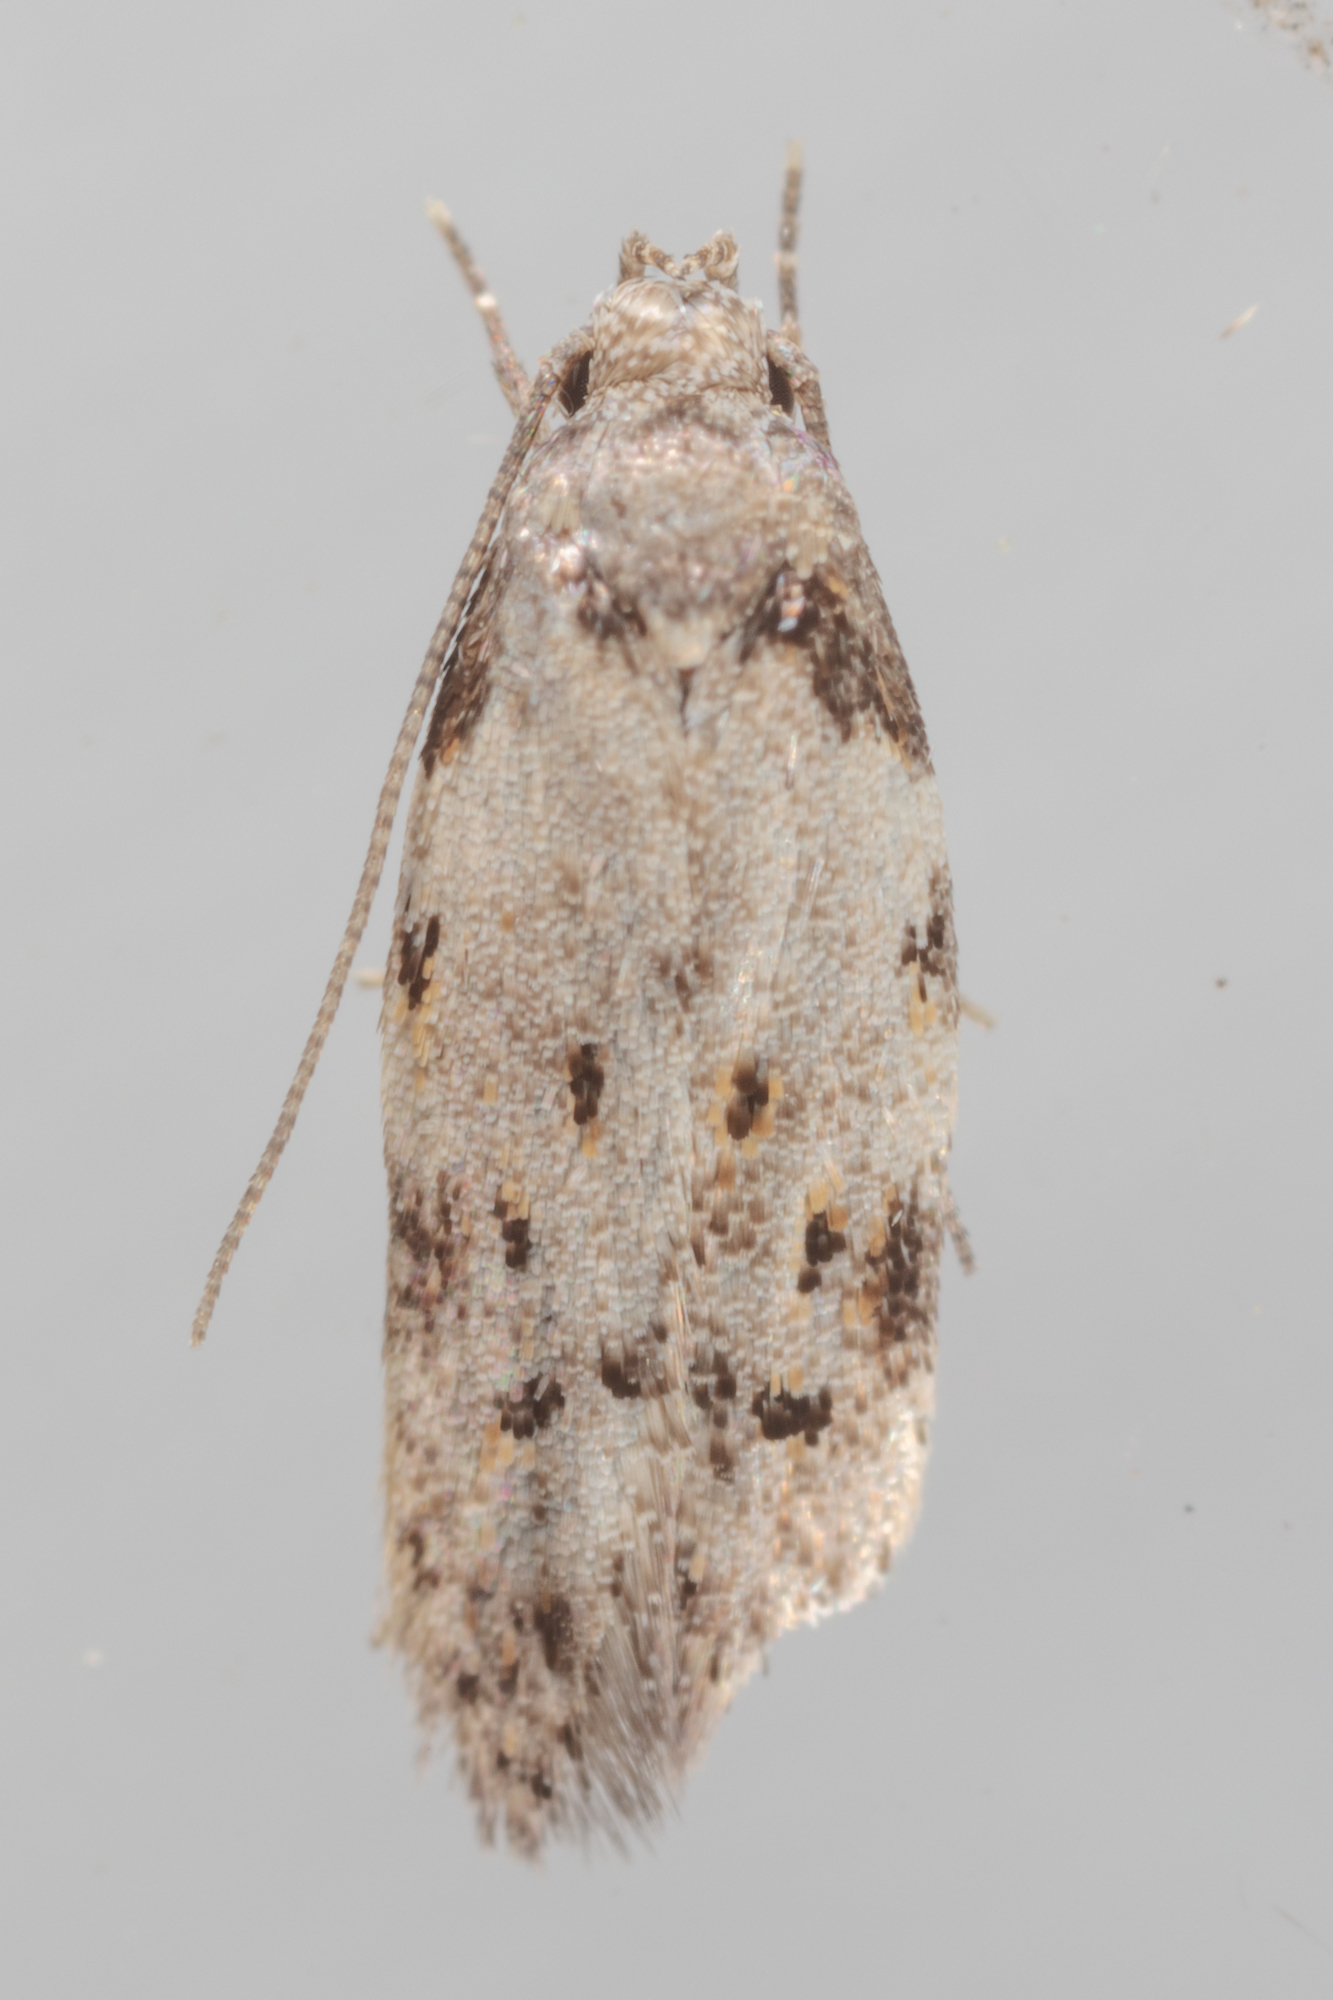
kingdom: Animalia
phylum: Arthropoda
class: Insecta
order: Lepidoptera
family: Autostichidae
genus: Taygete
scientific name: Taygete attributella
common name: Triangle-marked twirler moth
